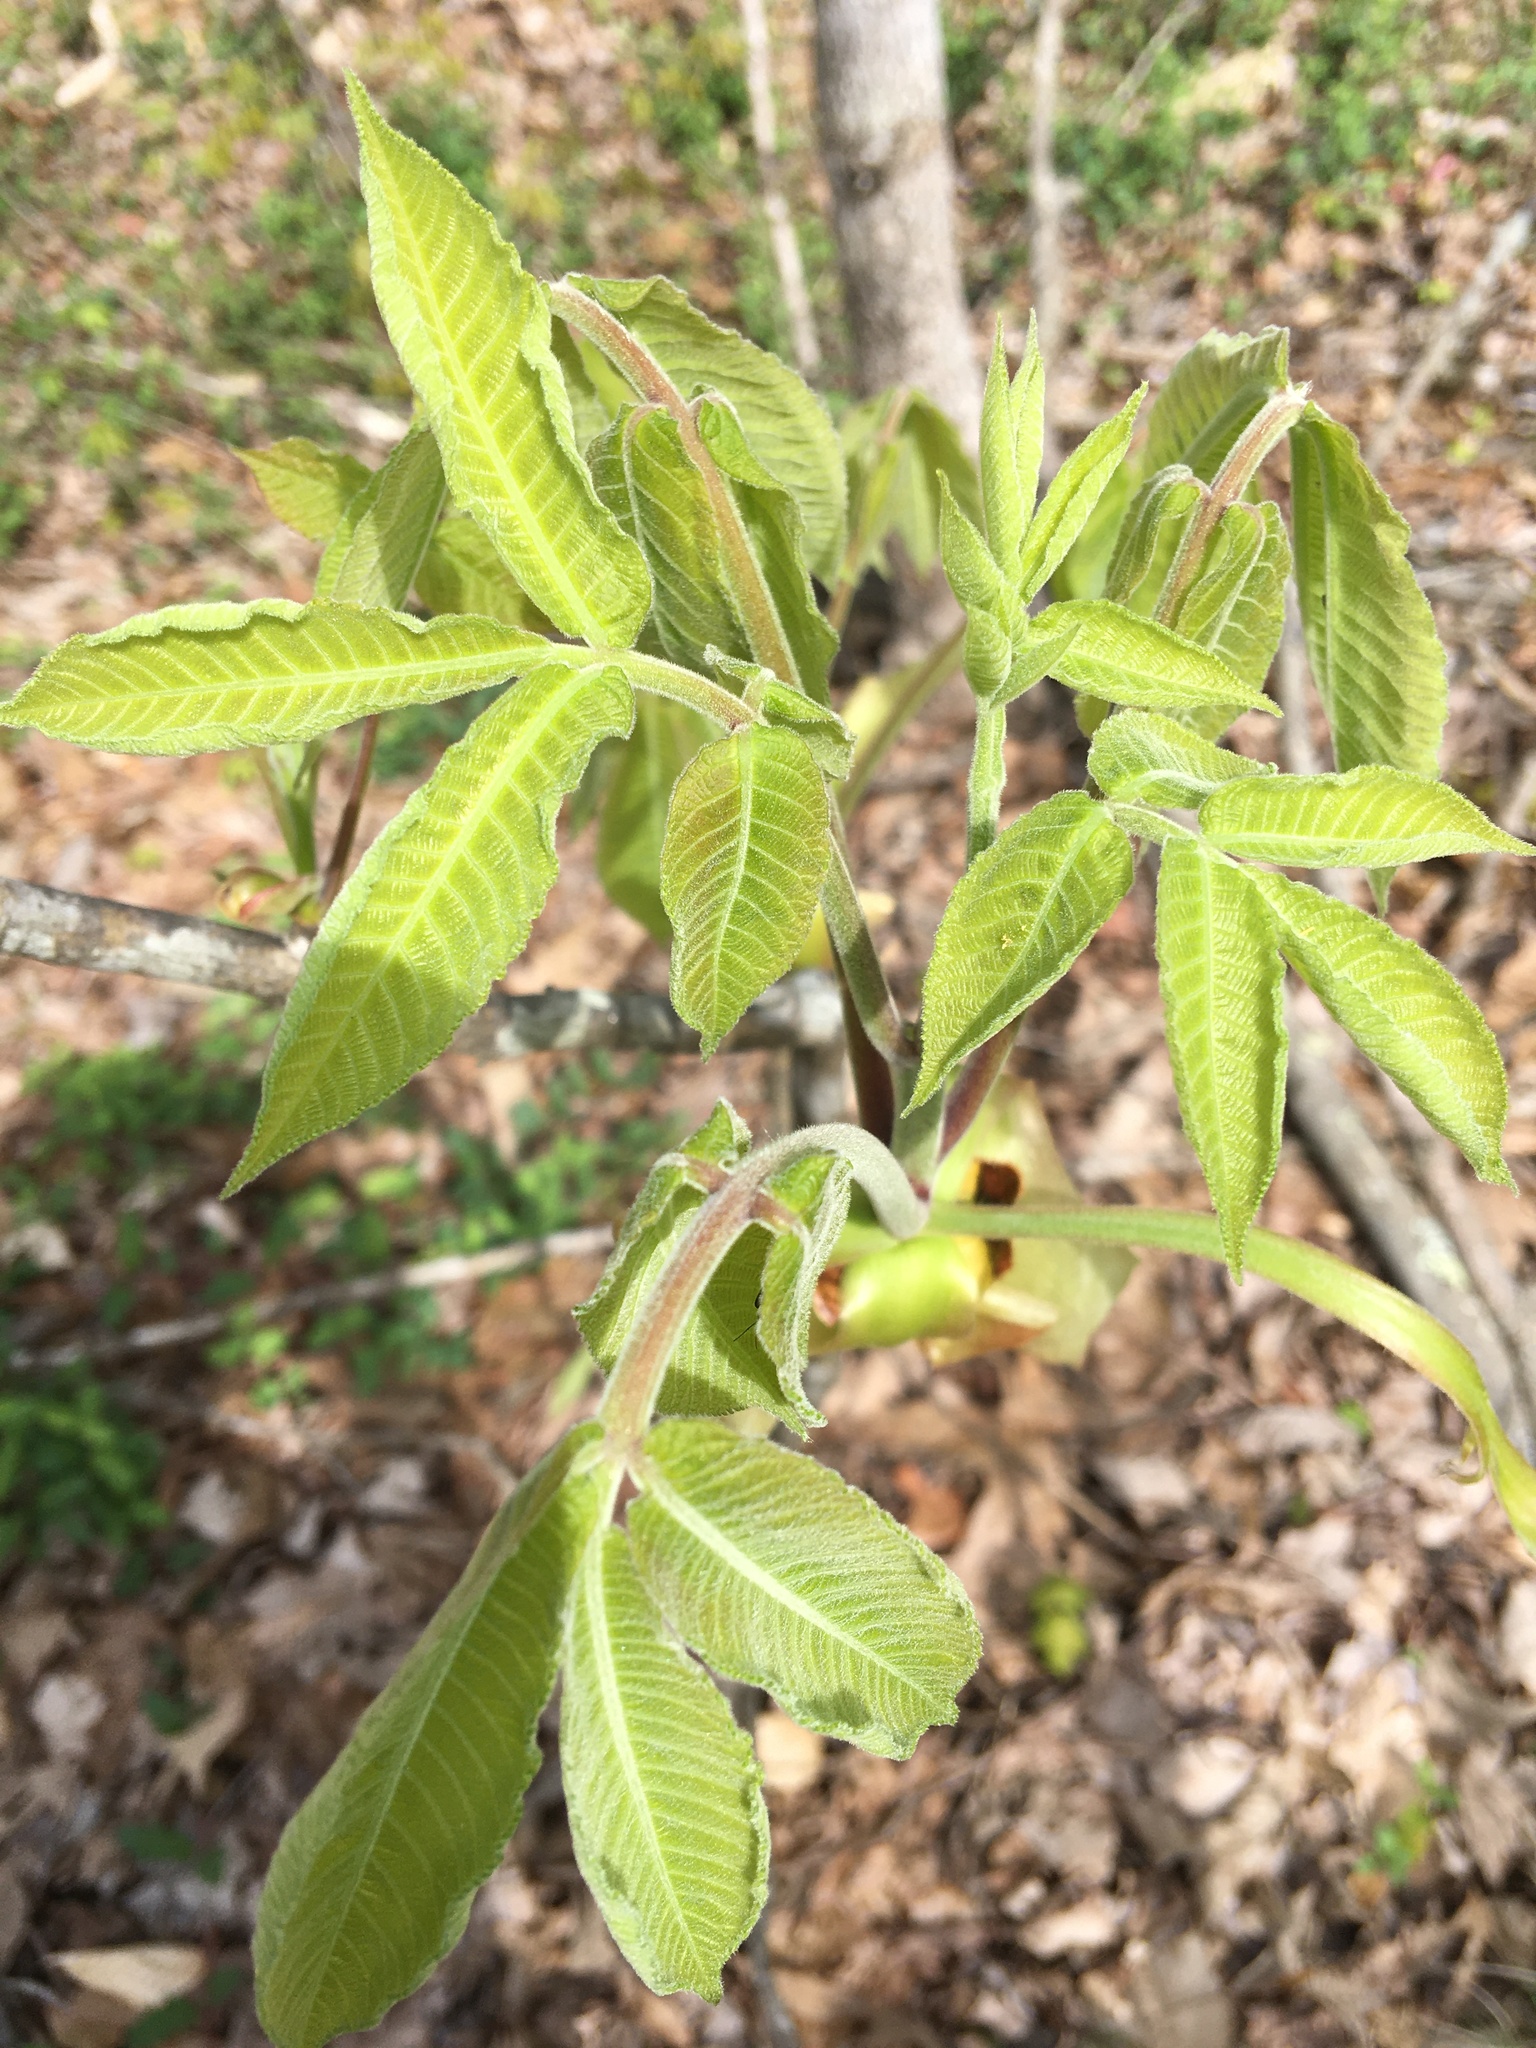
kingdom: Plantae
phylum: Tracheophyta
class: Magnoliopsida
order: Fagales
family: Juglandaceae
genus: Carya
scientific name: Carya alba
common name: Mockernut hickory
